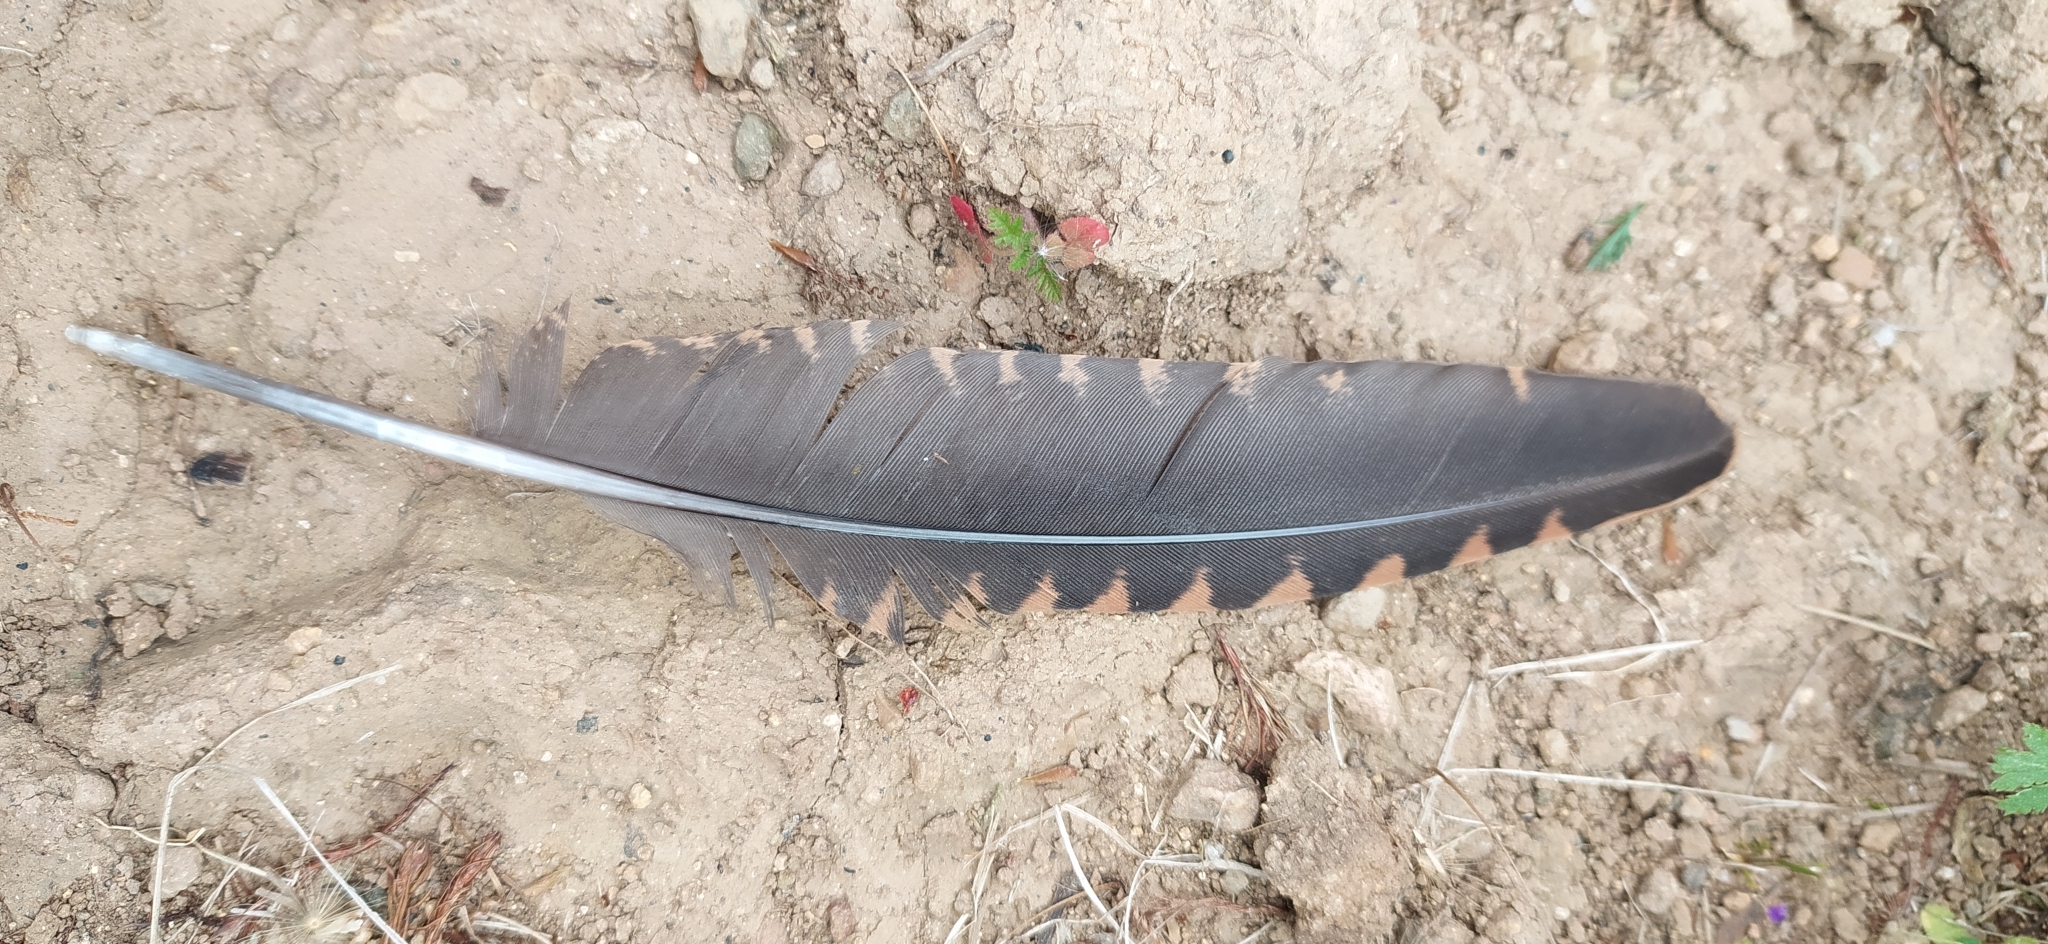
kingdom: Animalia
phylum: Chordata
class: Aves
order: Charadriiformes
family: Scolopacidae
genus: Scolopax
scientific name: Scolopax rusticola
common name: Eurasian woodcock
